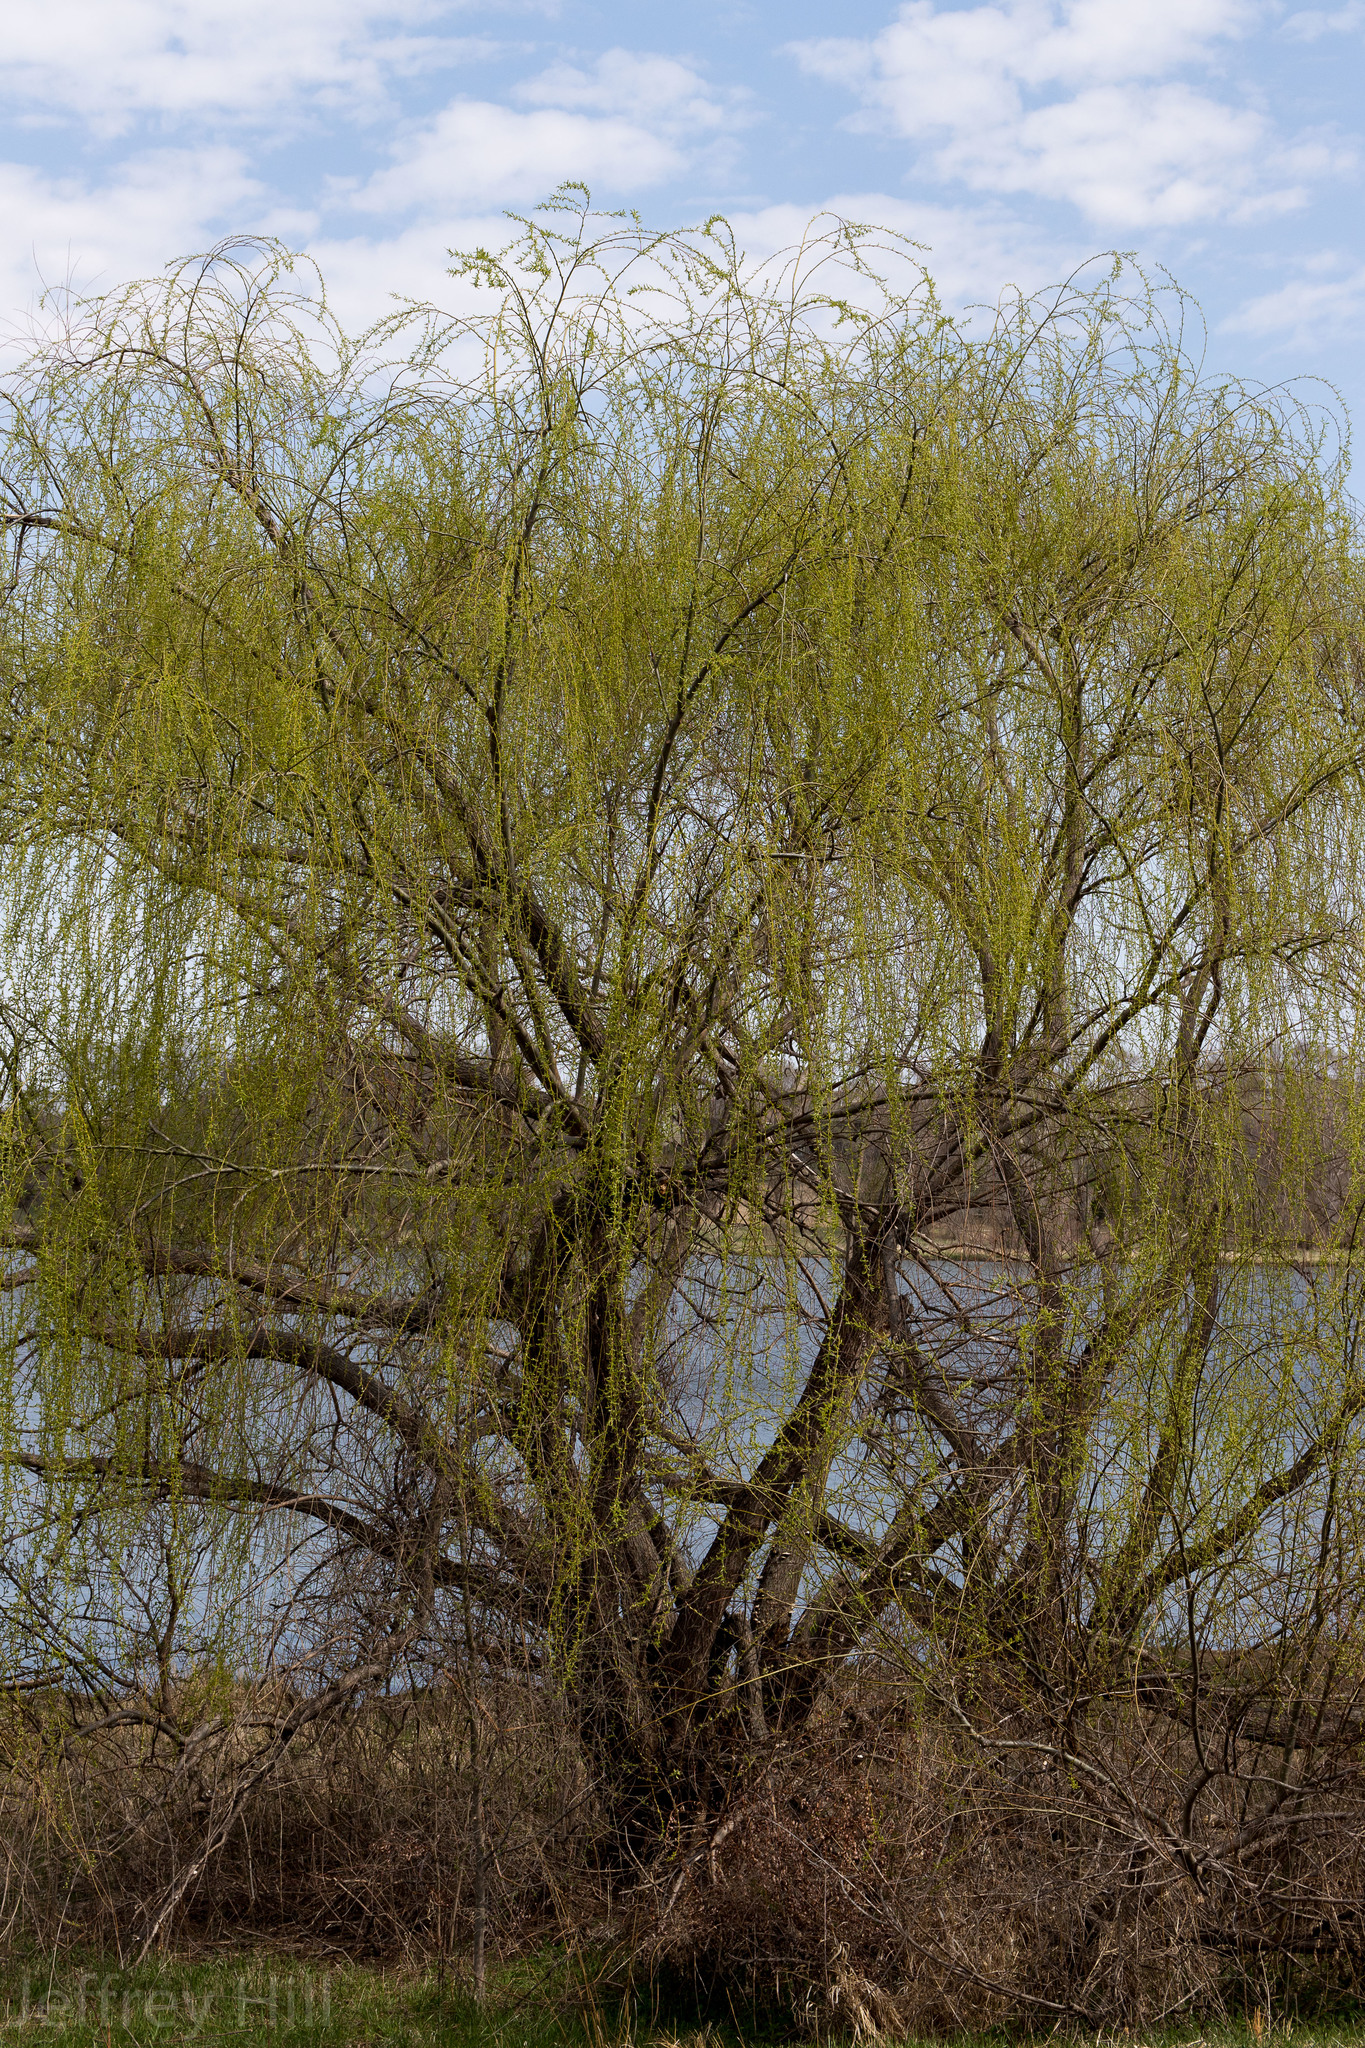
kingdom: Plantae
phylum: Tracheophyta
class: Magnoliopsida
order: Malpighiales
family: Salicaceae
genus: Salix
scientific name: Salix babylonica
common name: Weeping willow
